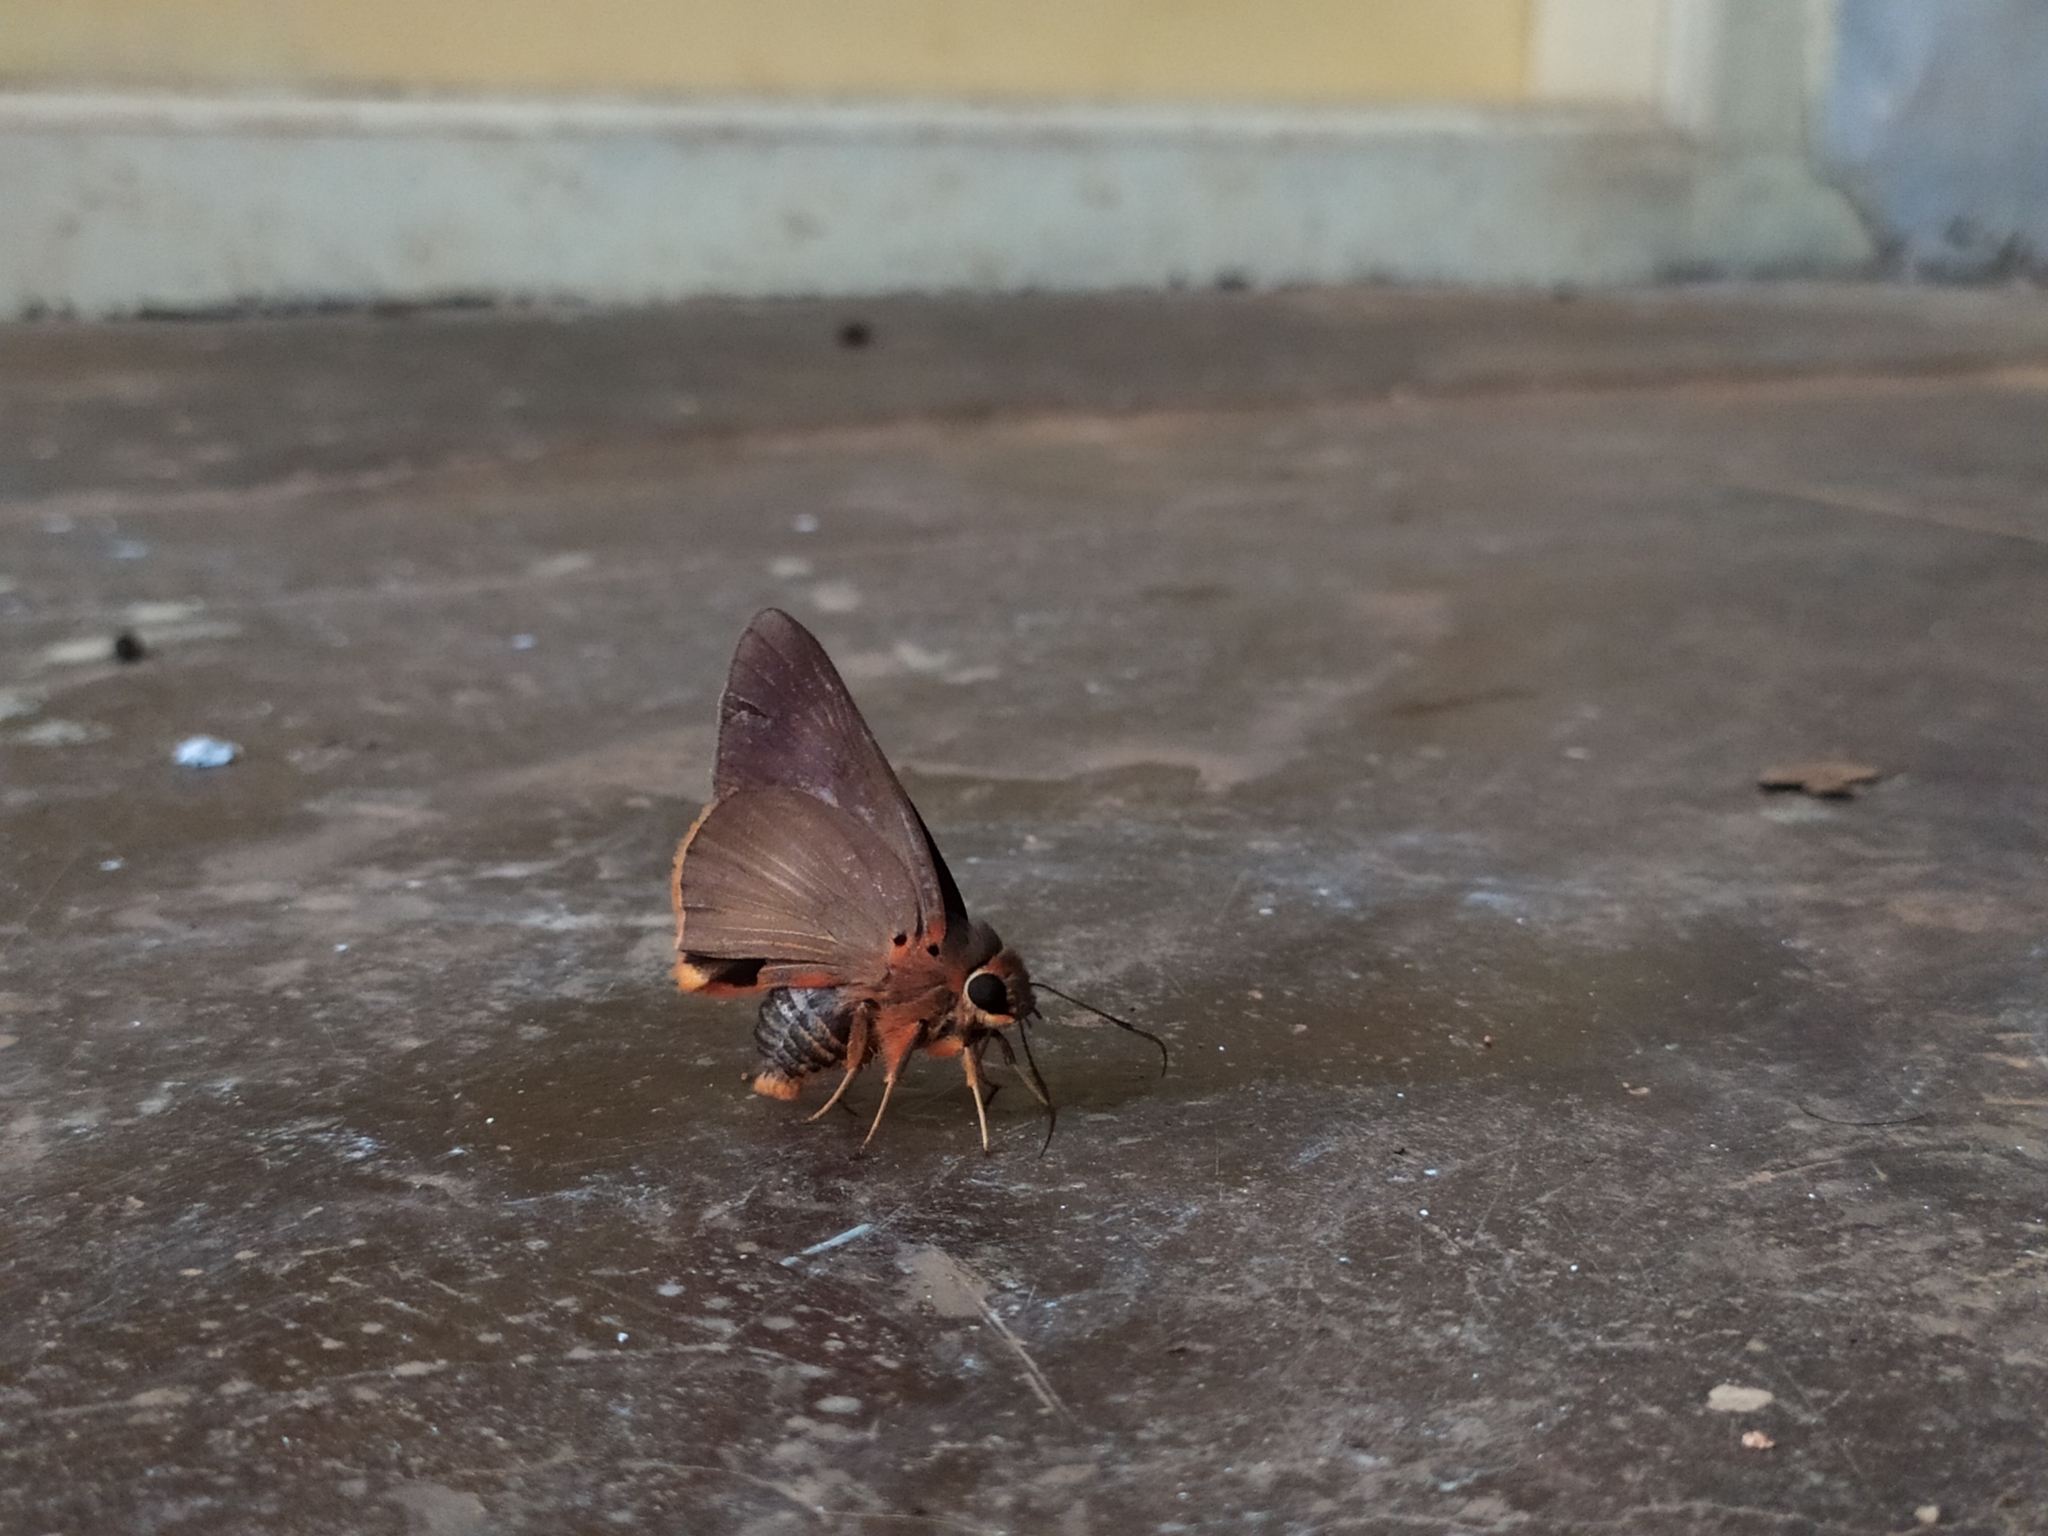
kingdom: Animalia
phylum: Arthropoda
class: Insecta
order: Lepidoptera
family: Hesperiidae
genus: Bibasis
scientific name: Bibasis jaina
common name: Common orange awlet
